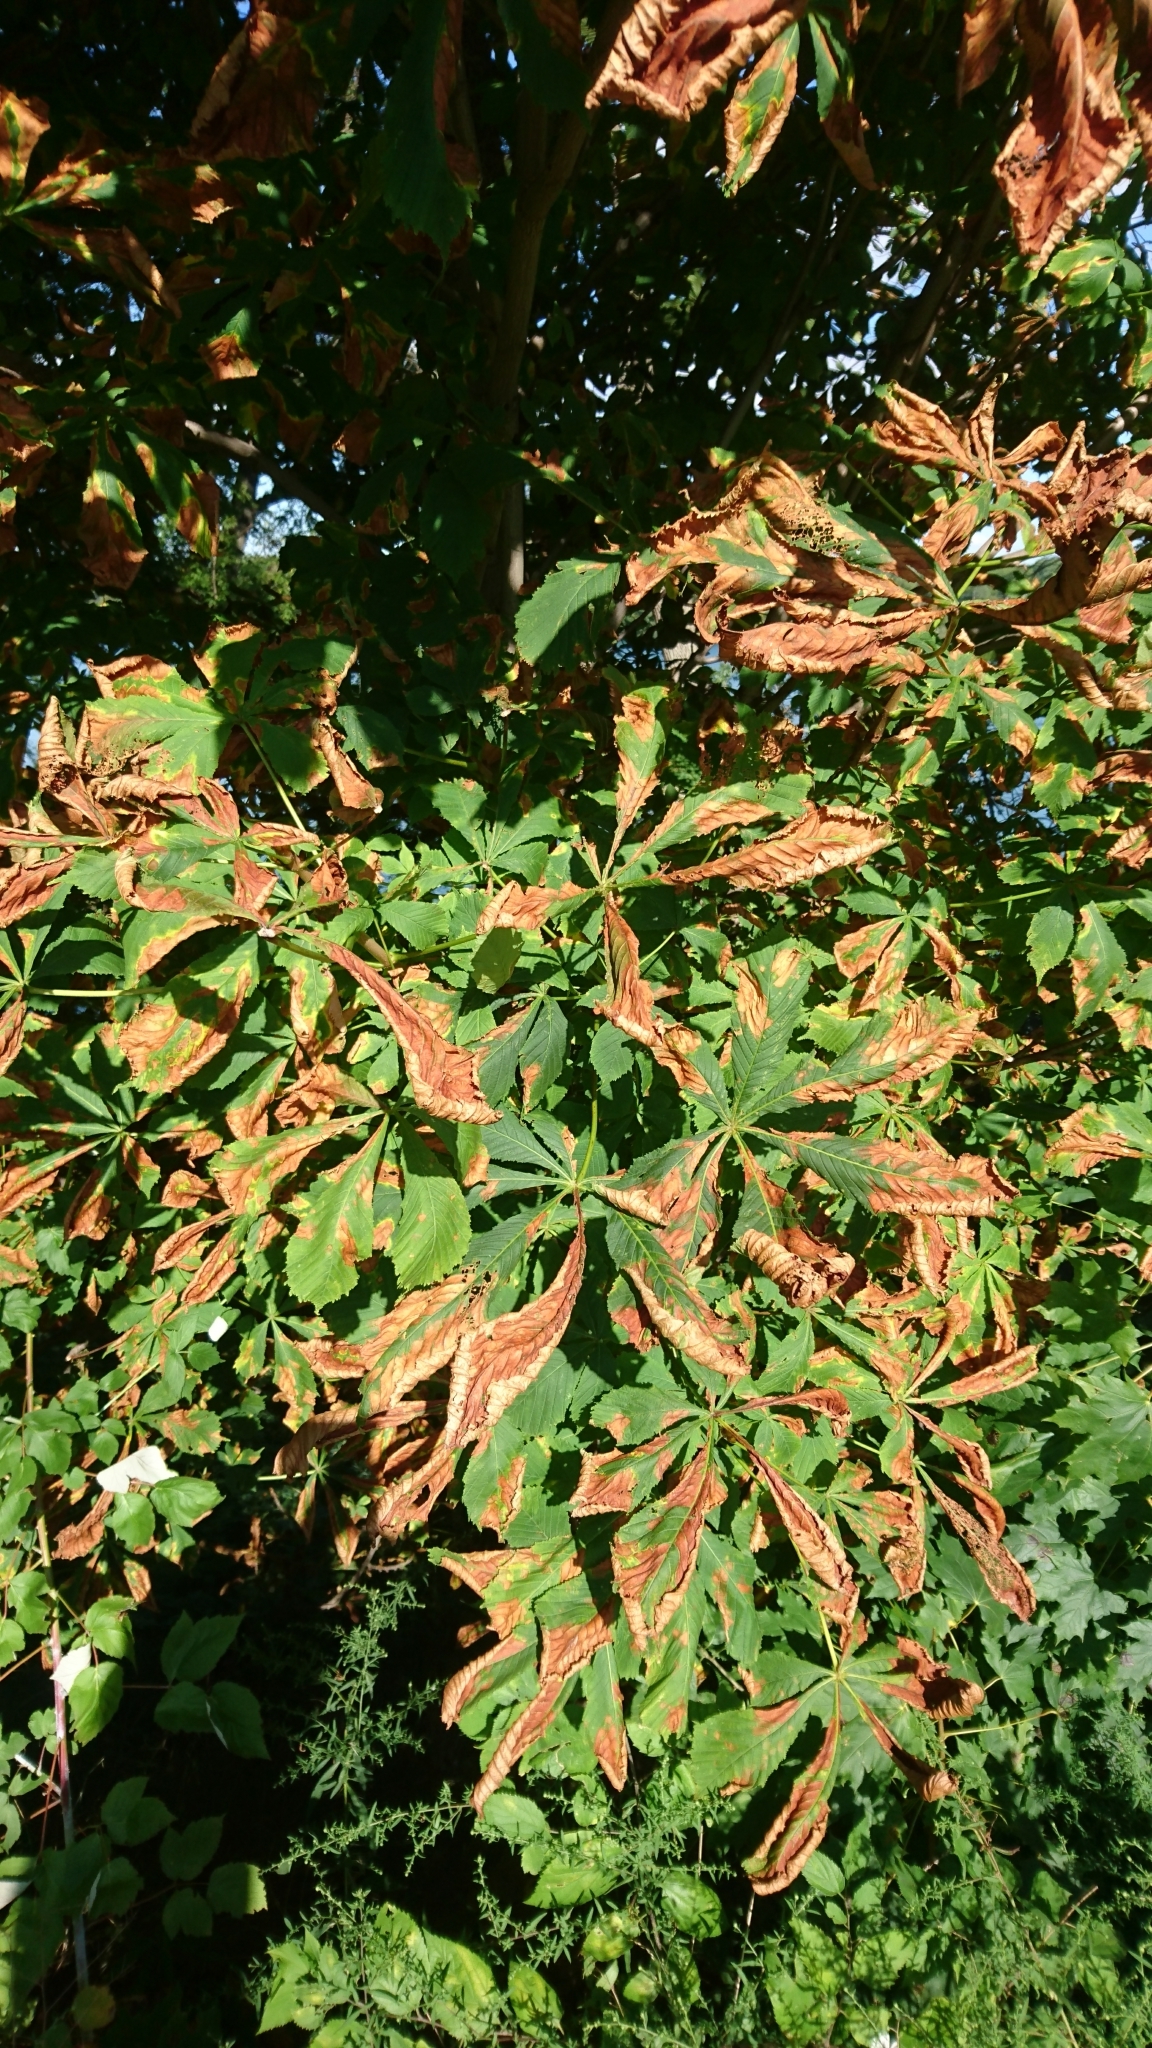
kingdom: Plantae
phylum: Tracheophyta
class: Magnoliopsida
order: Sapindales
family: Sapindaceae
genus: Aesculus
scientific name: Aesculus hippocastanum
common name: Horse-chestnut
